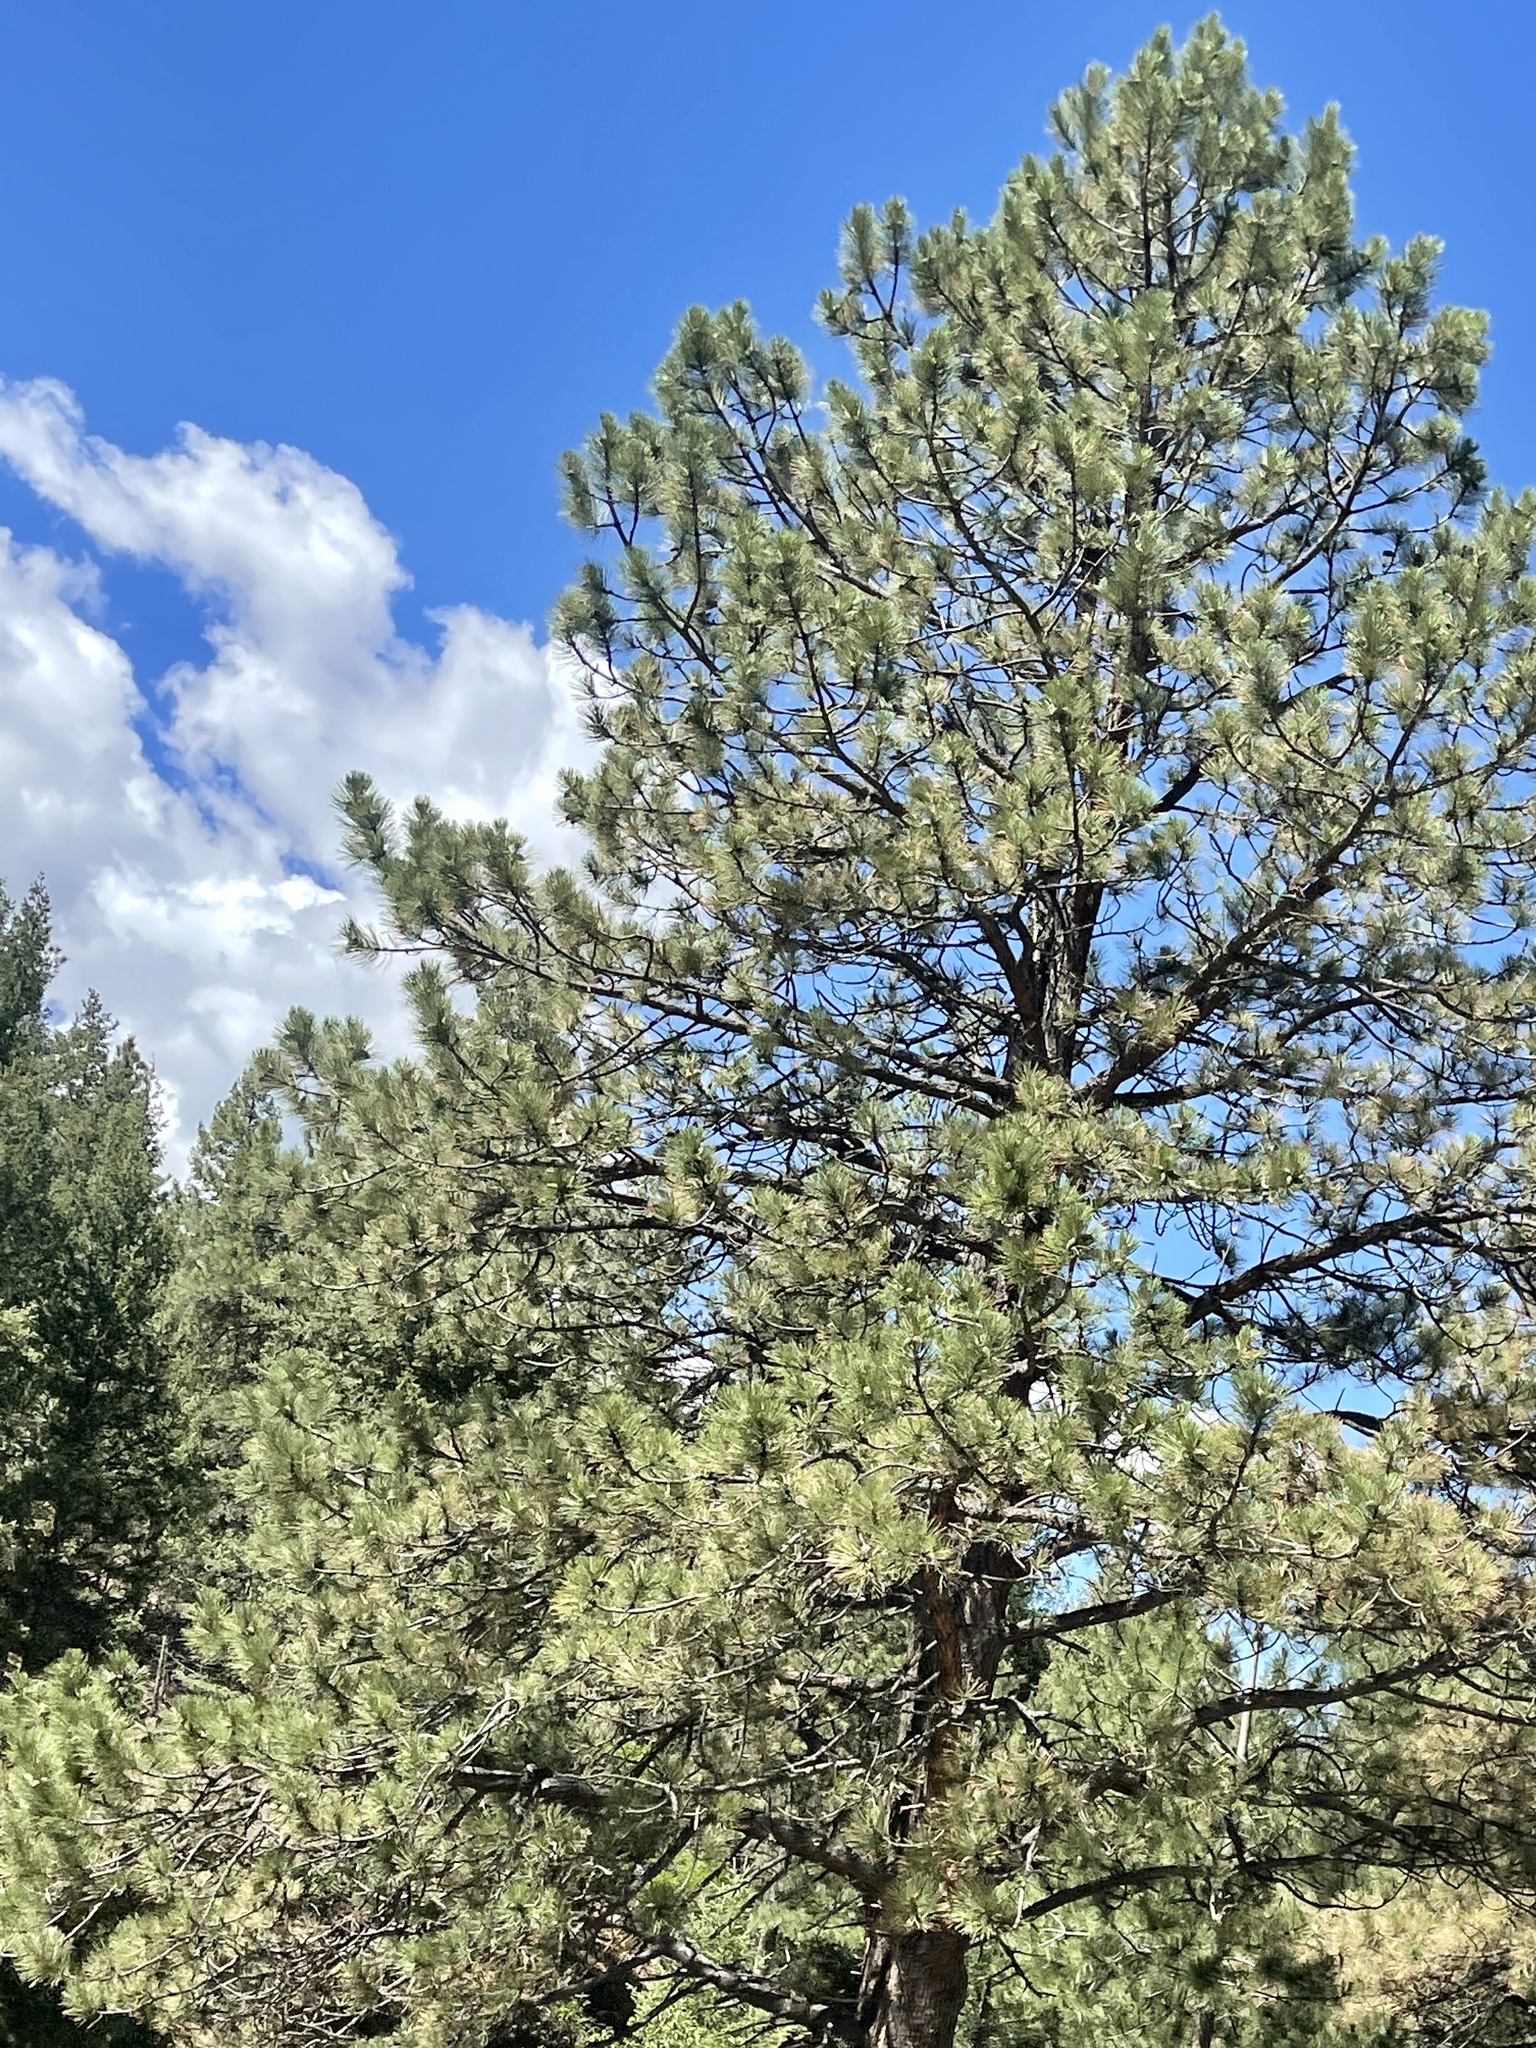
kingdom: Plantae
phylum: Tracheophyta
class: Pinopsida
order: Pinales
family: Pinaceae
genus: Pinus
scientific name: Pinus ponderosa
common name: Western yellow-pine
